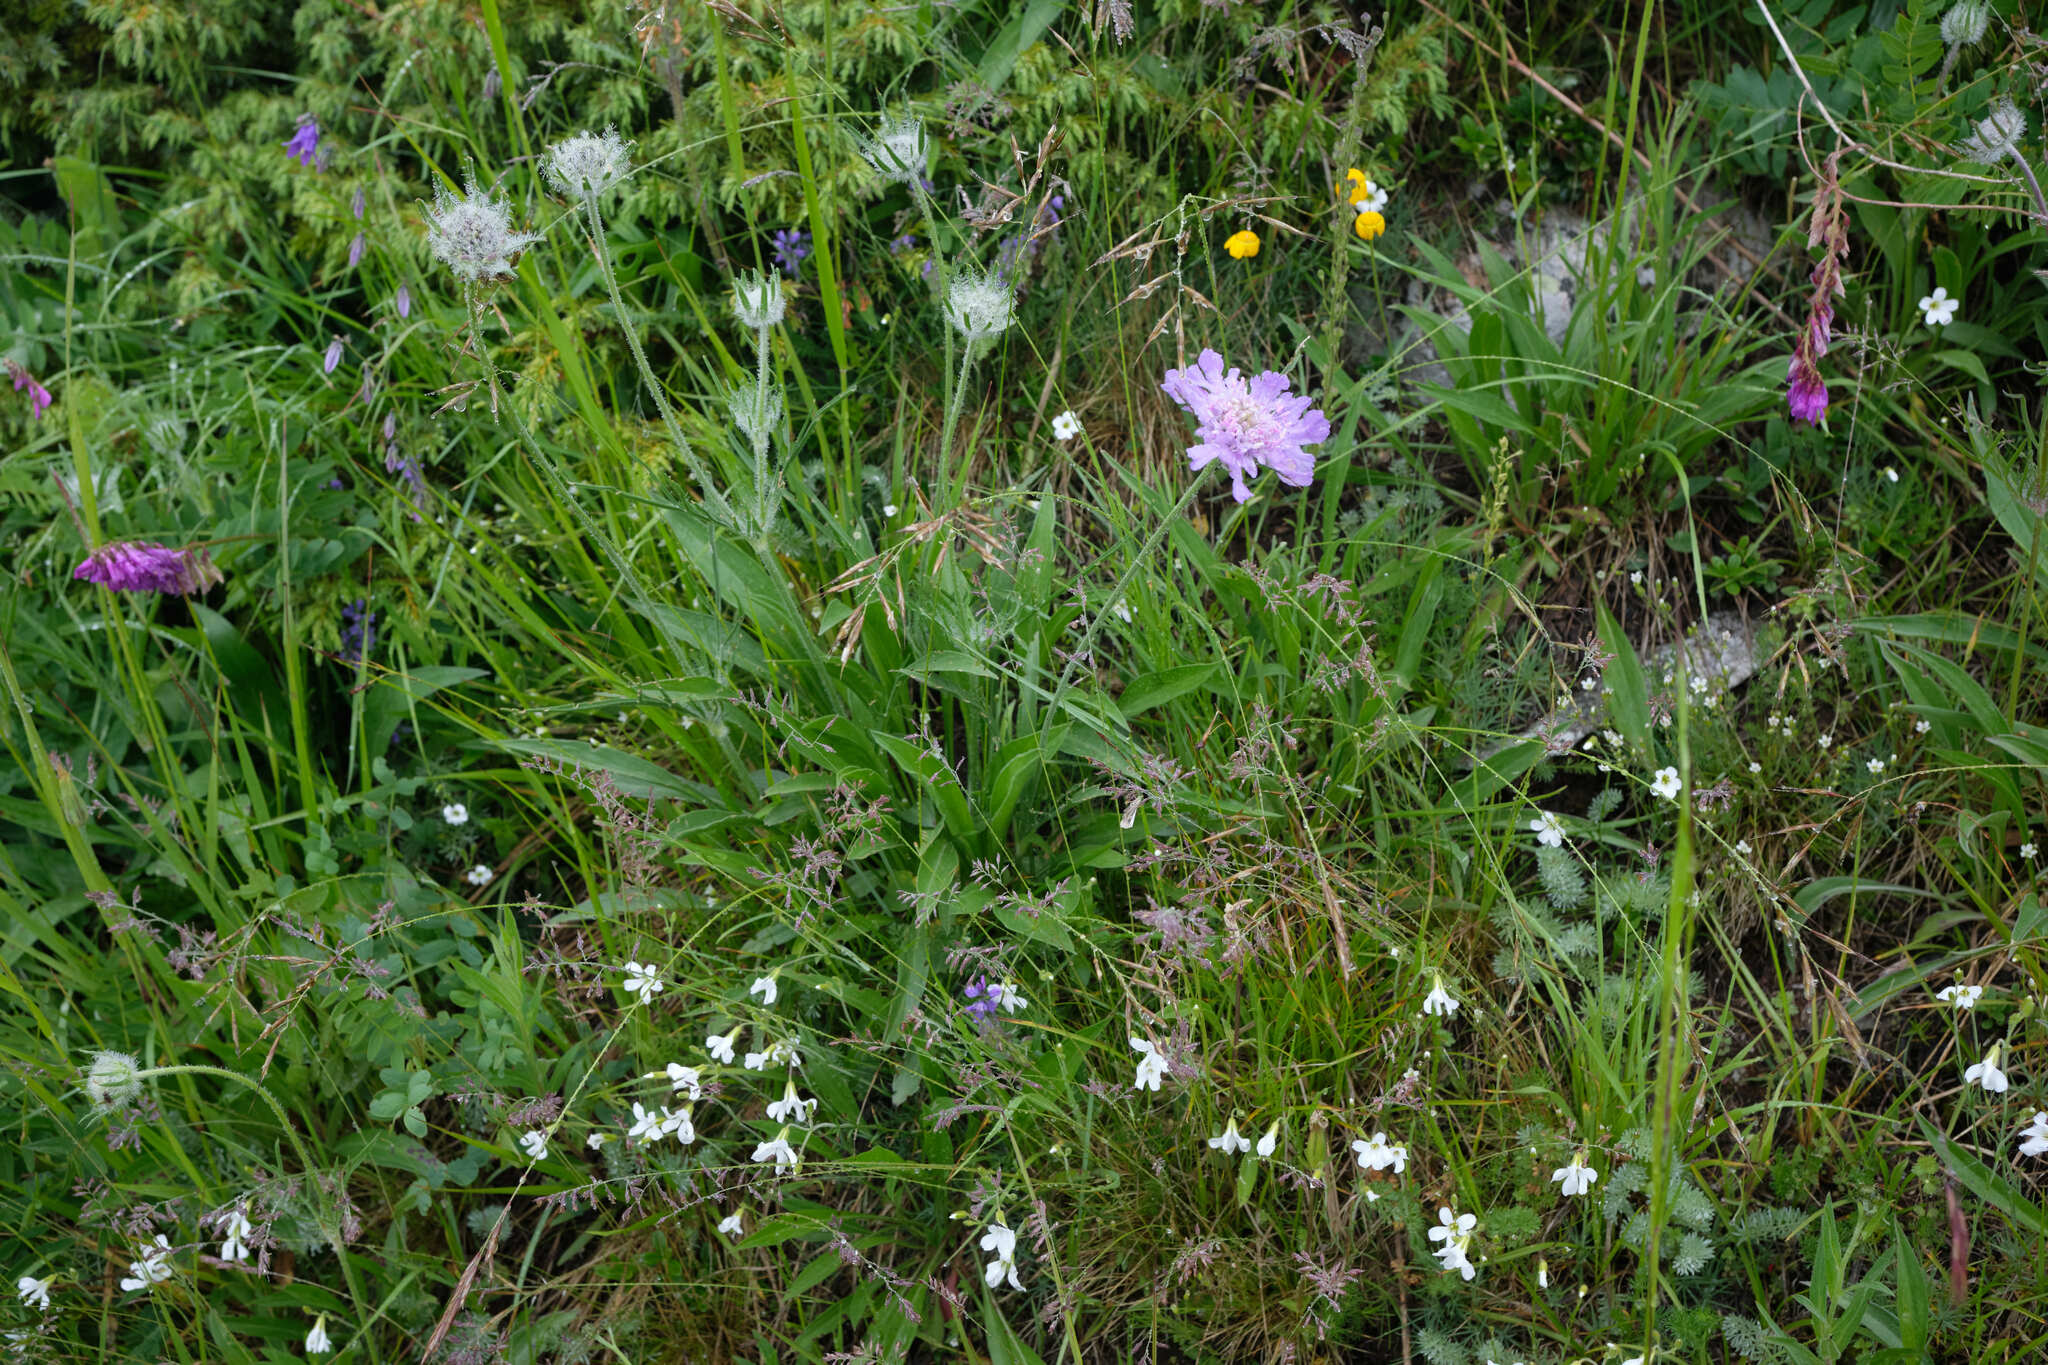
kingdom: Plantae
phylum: Tracheophyta
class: Magnoliopsida
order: Dipsacales
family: Caprifoliaceae
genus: Lomelosia
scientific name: Lomelosia caucasica
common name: Pincushion-flower
